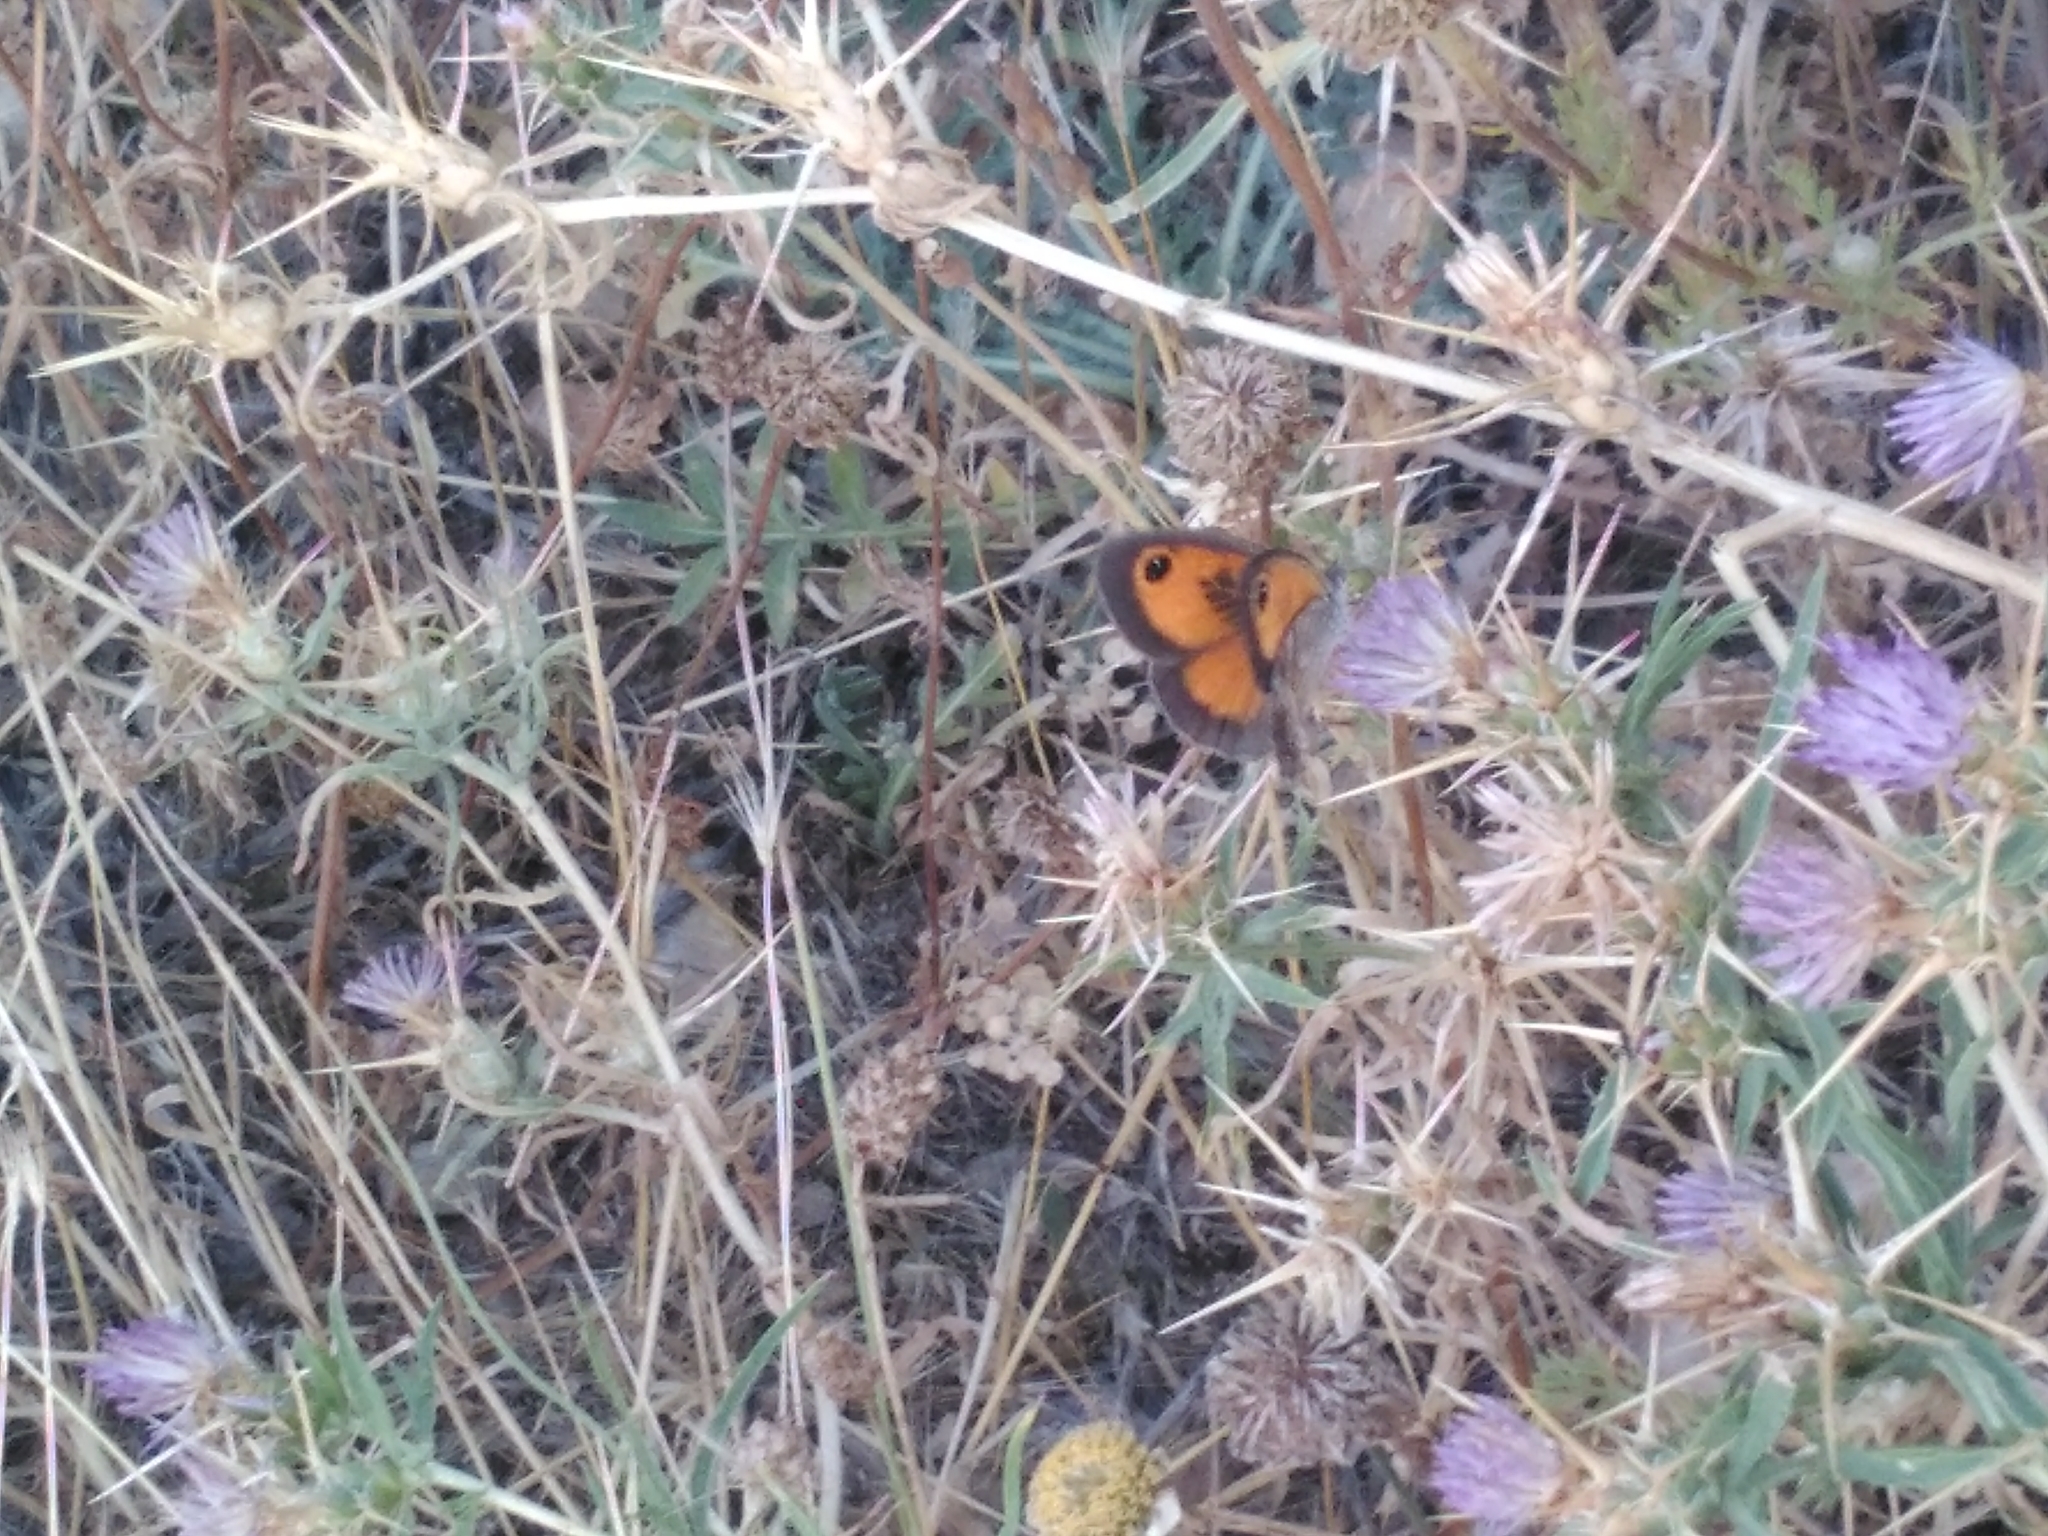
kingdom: Animalia
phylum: Arthropoda
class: Insecta
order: Lepidoptera
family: Nymphalidae
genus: Pyronia
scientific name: Pyronia cecilia
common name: Southern gatekeeper
